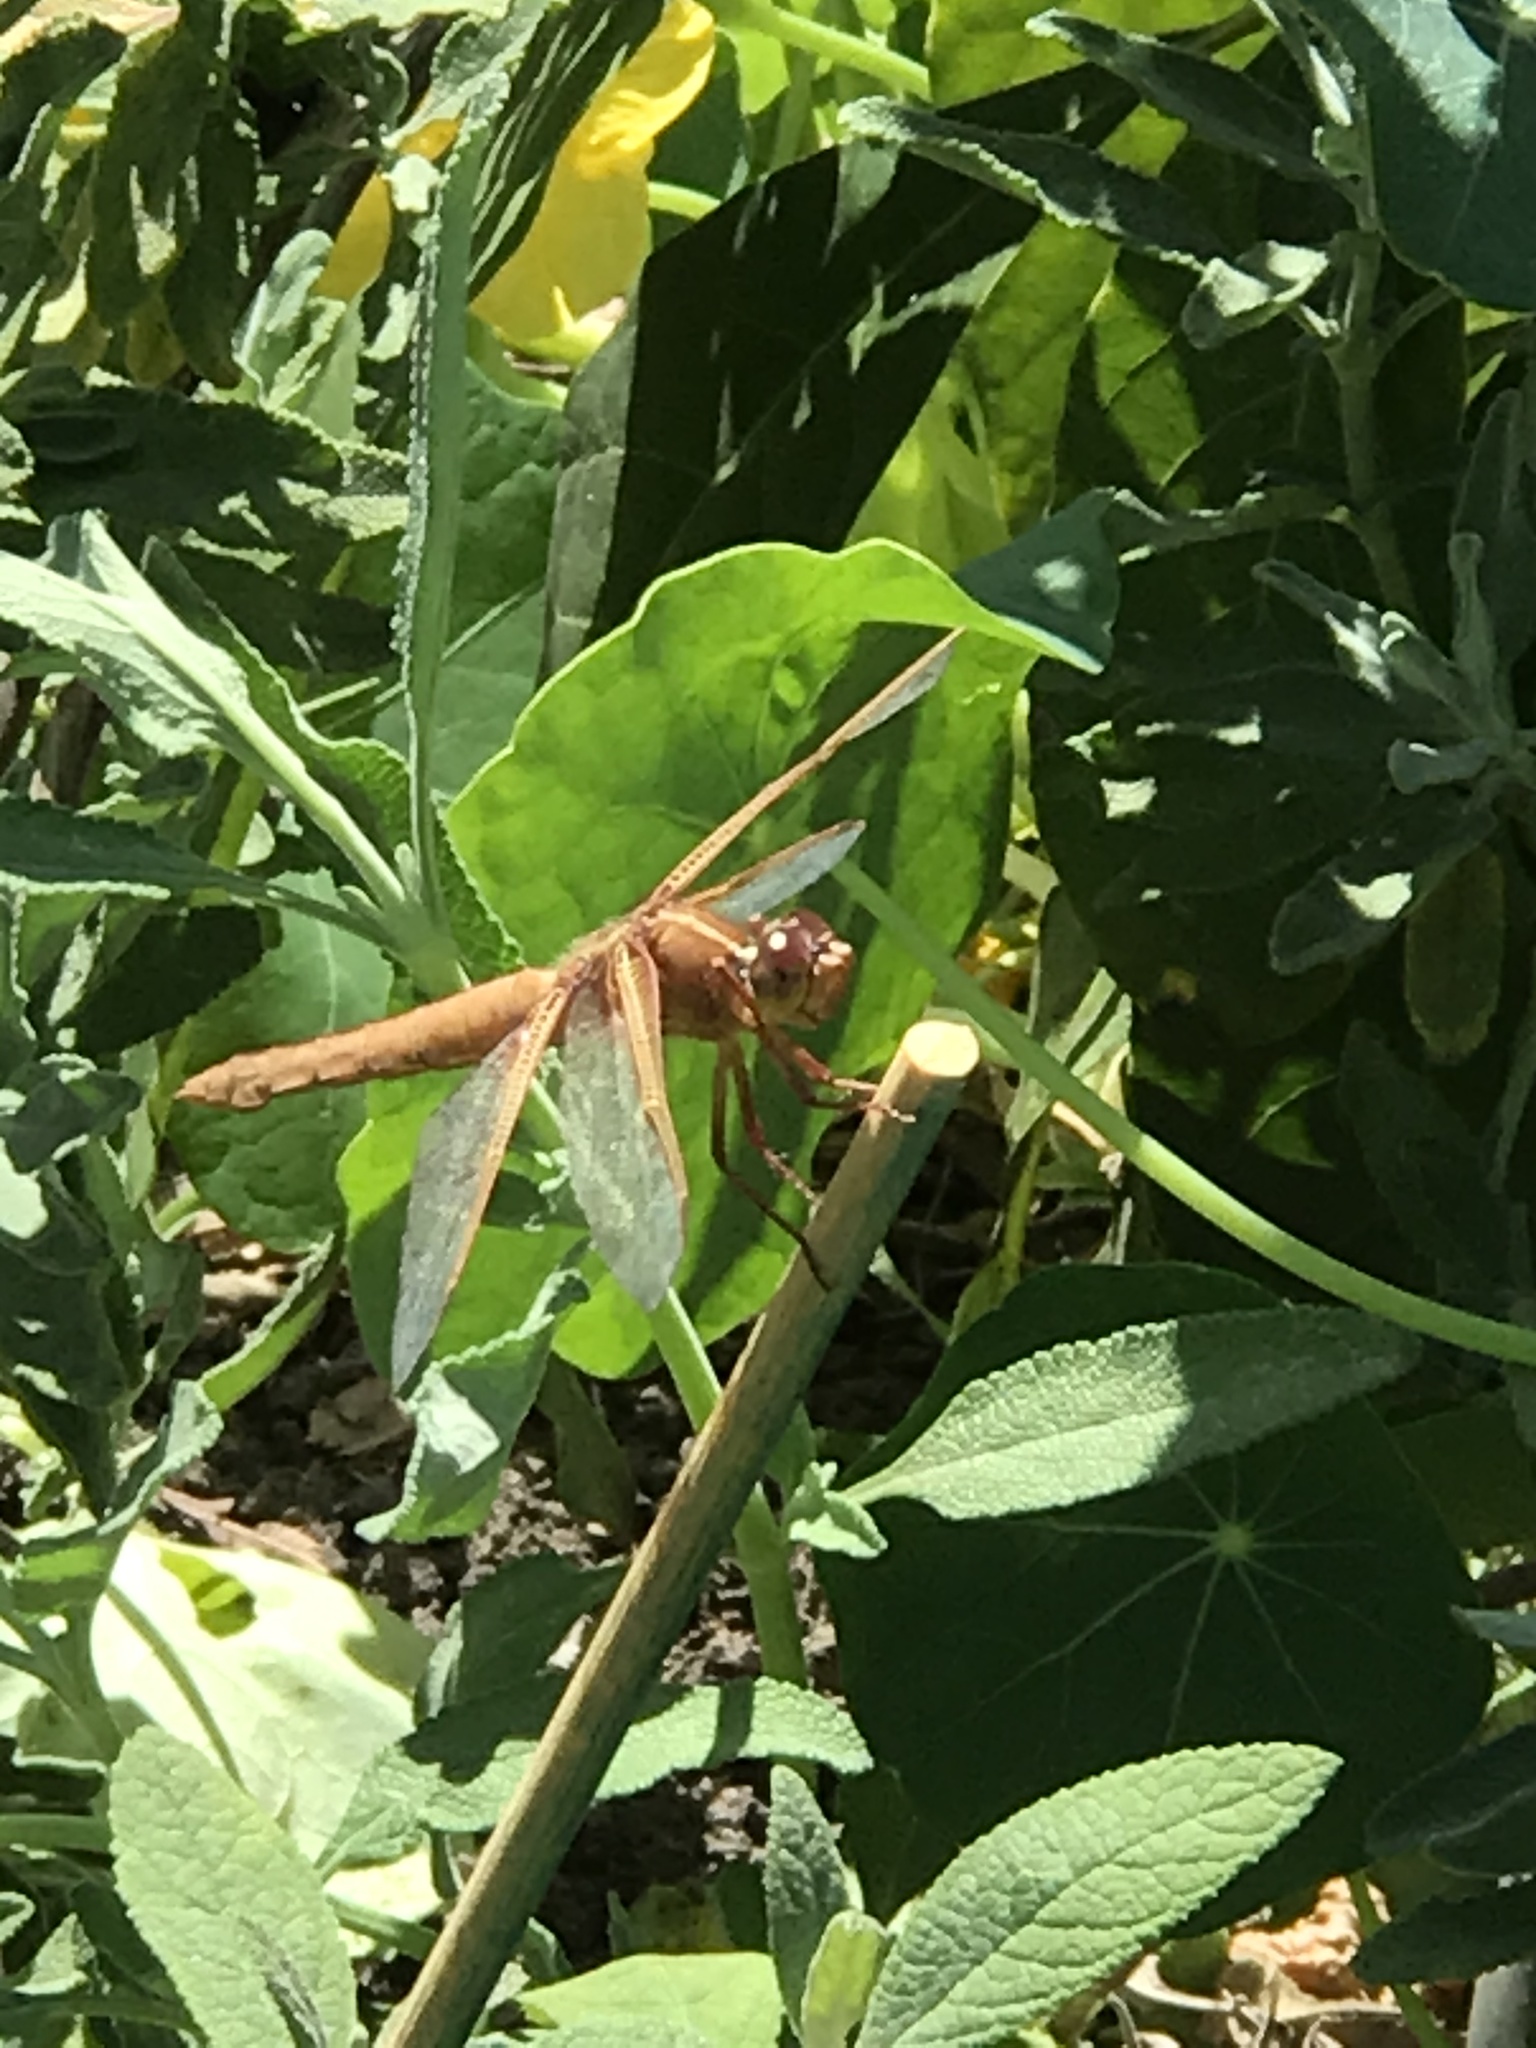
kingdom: Animalia
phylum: Arthropoda
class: Insecta
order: Odonata
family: Libellulidae
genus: Libellula
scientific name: Libellula saturata
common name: Flame skimmer
